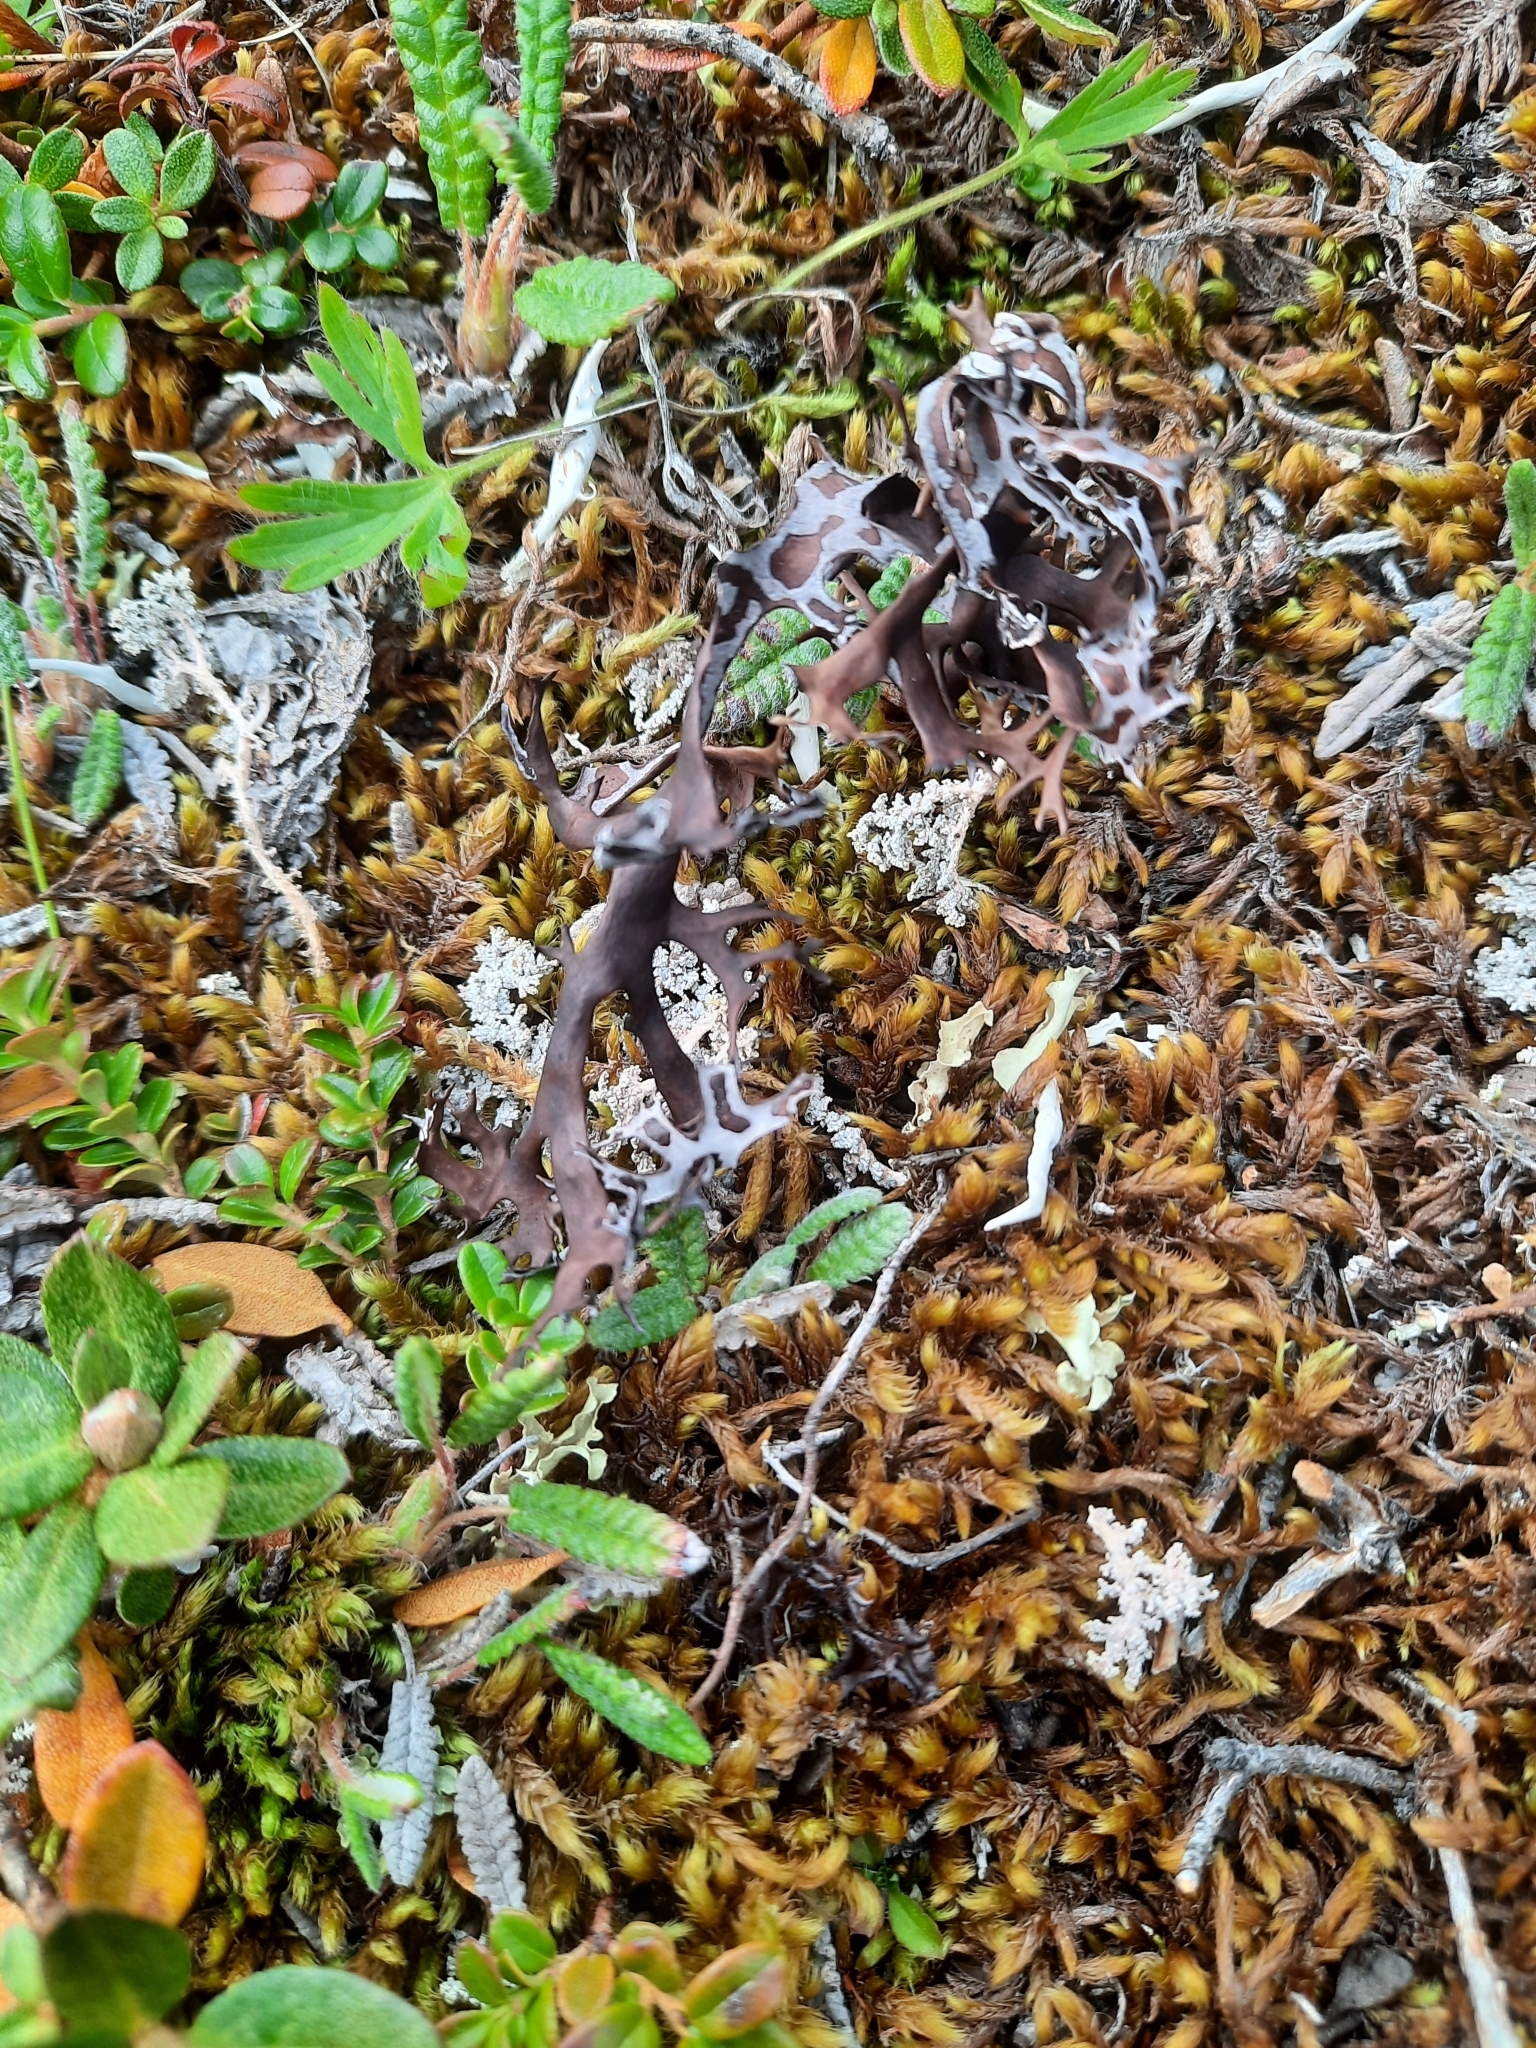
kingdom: Fungi
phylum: Ascomycota
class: Lecanoromycetes
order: Lecanorales
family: Parmeliaceae
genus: Nephromopsis
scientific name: Nephromopsis richardsonii
